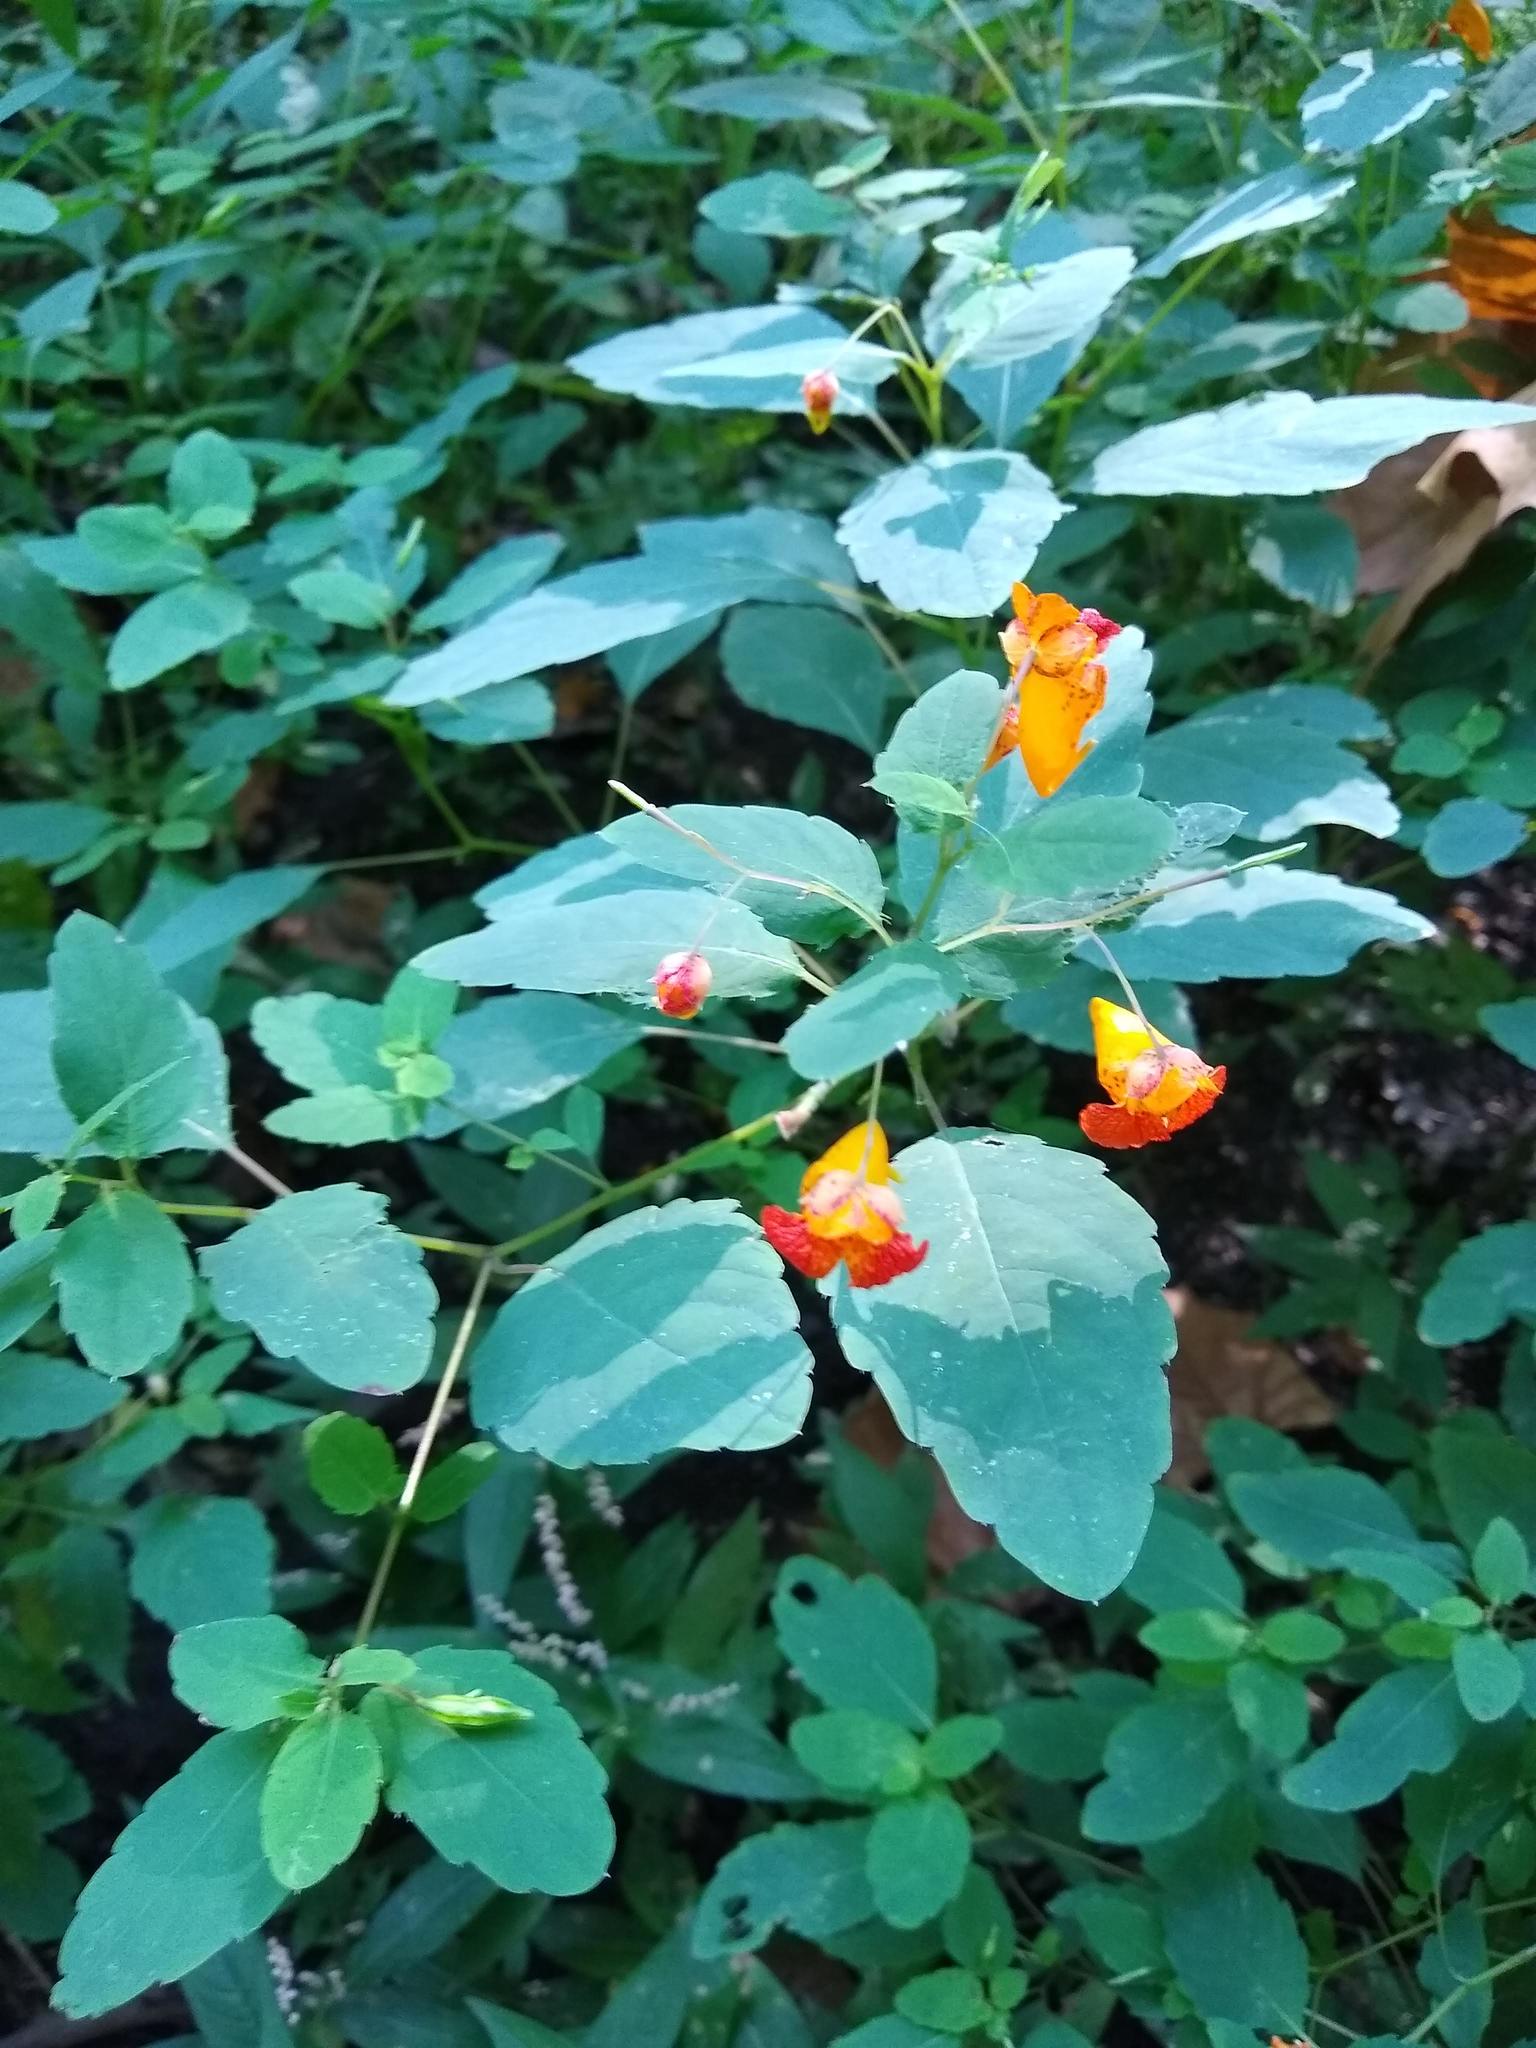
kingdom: Plantae
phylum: Tracheophyta
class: Magnoliopsida
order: Ericales
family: Balsaminaceae
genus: Impatiens
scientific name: Impatiens capensis
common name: Orange balsam
